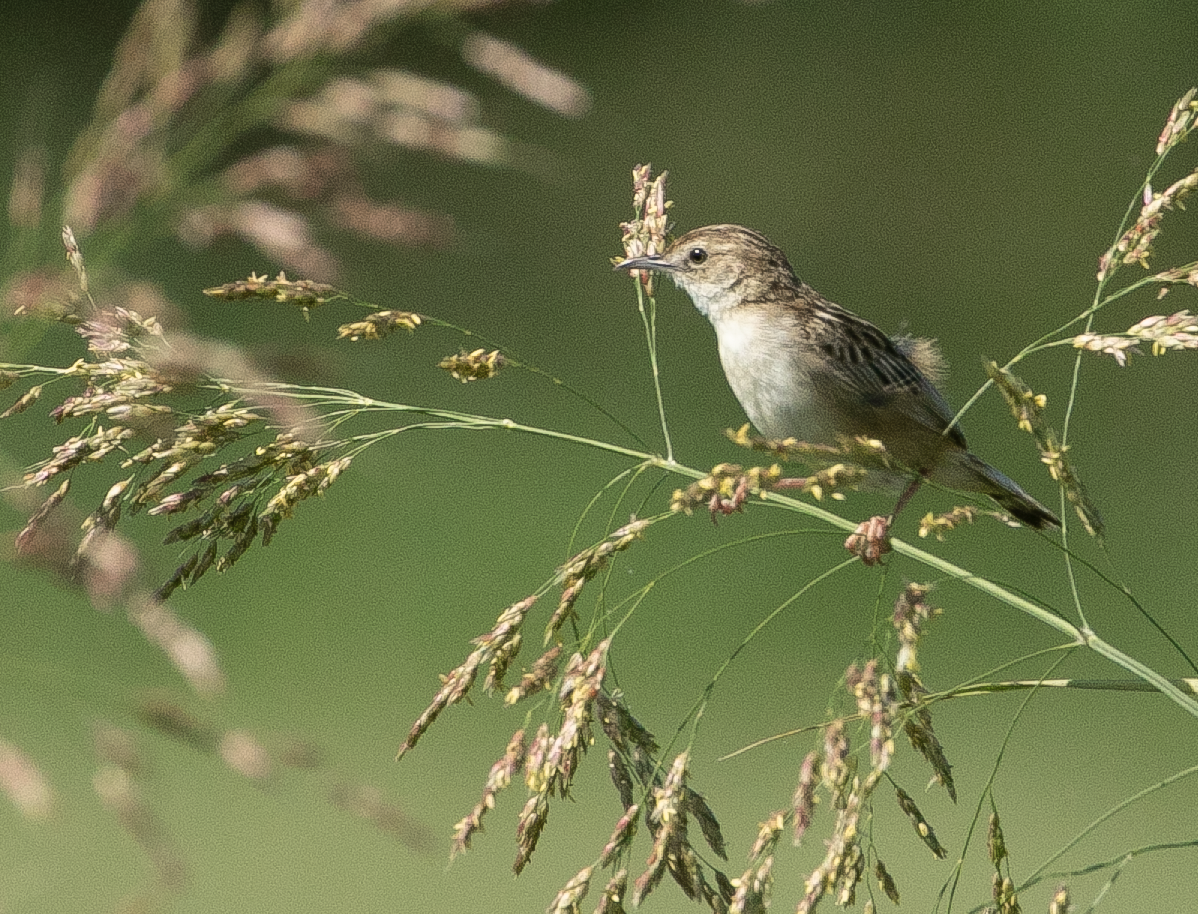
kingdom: Animalia
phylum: Chordata
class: Aves
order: Passeriformes
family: Cisticolidae
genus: Cisticola
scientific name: Cisticola juncidis
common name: Zitting cisticola
